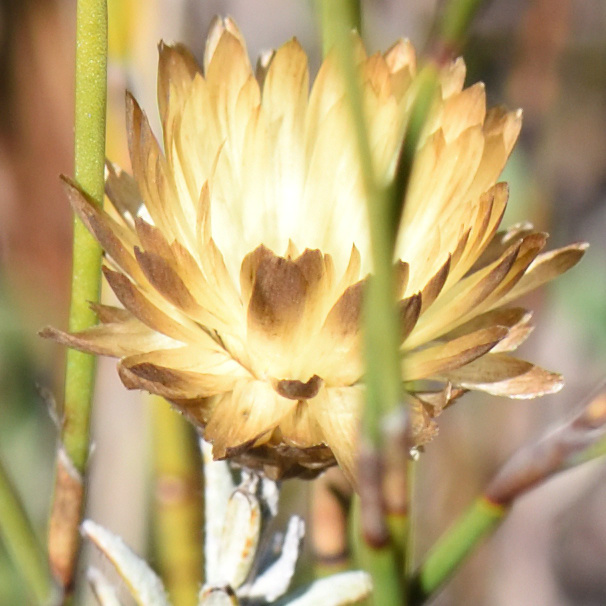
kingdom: Plantae
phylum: Tracheophyta
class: Magnoliopsida
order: Asterales
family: Asteraceae
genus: Helichrysum
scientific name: Helichrysum herbaceum
